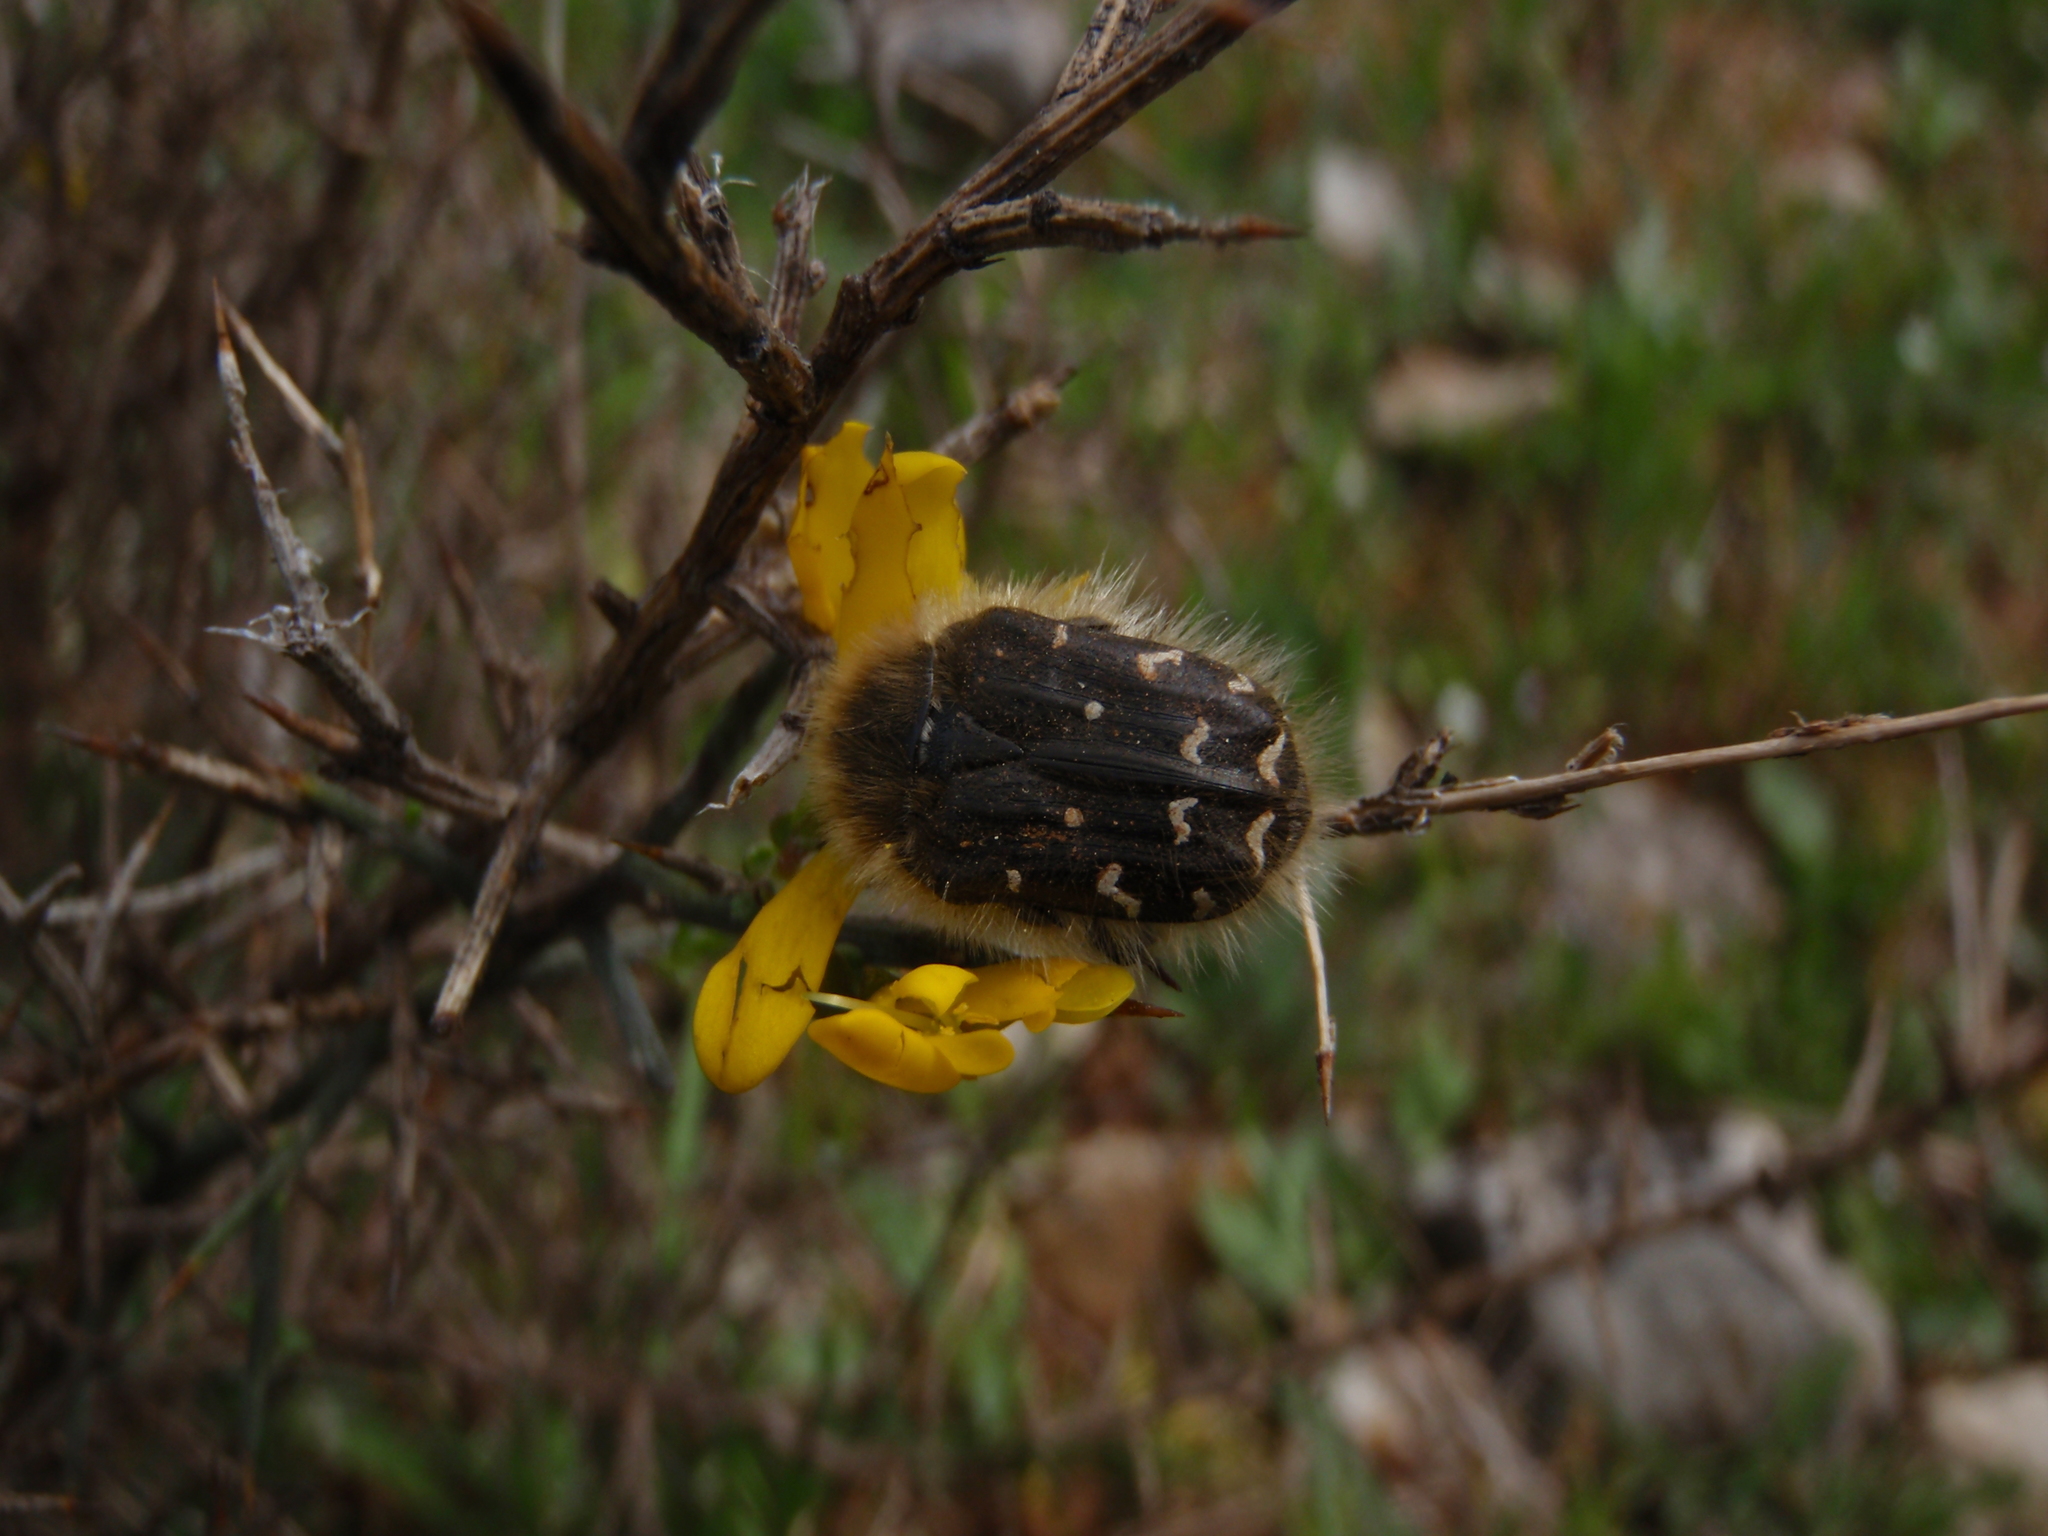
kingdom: Animalia
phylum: Arthropoda
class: Insecta
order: Coleoptera
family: Scarabaeidae
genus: Tropinota
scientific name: Tropinota hirta
